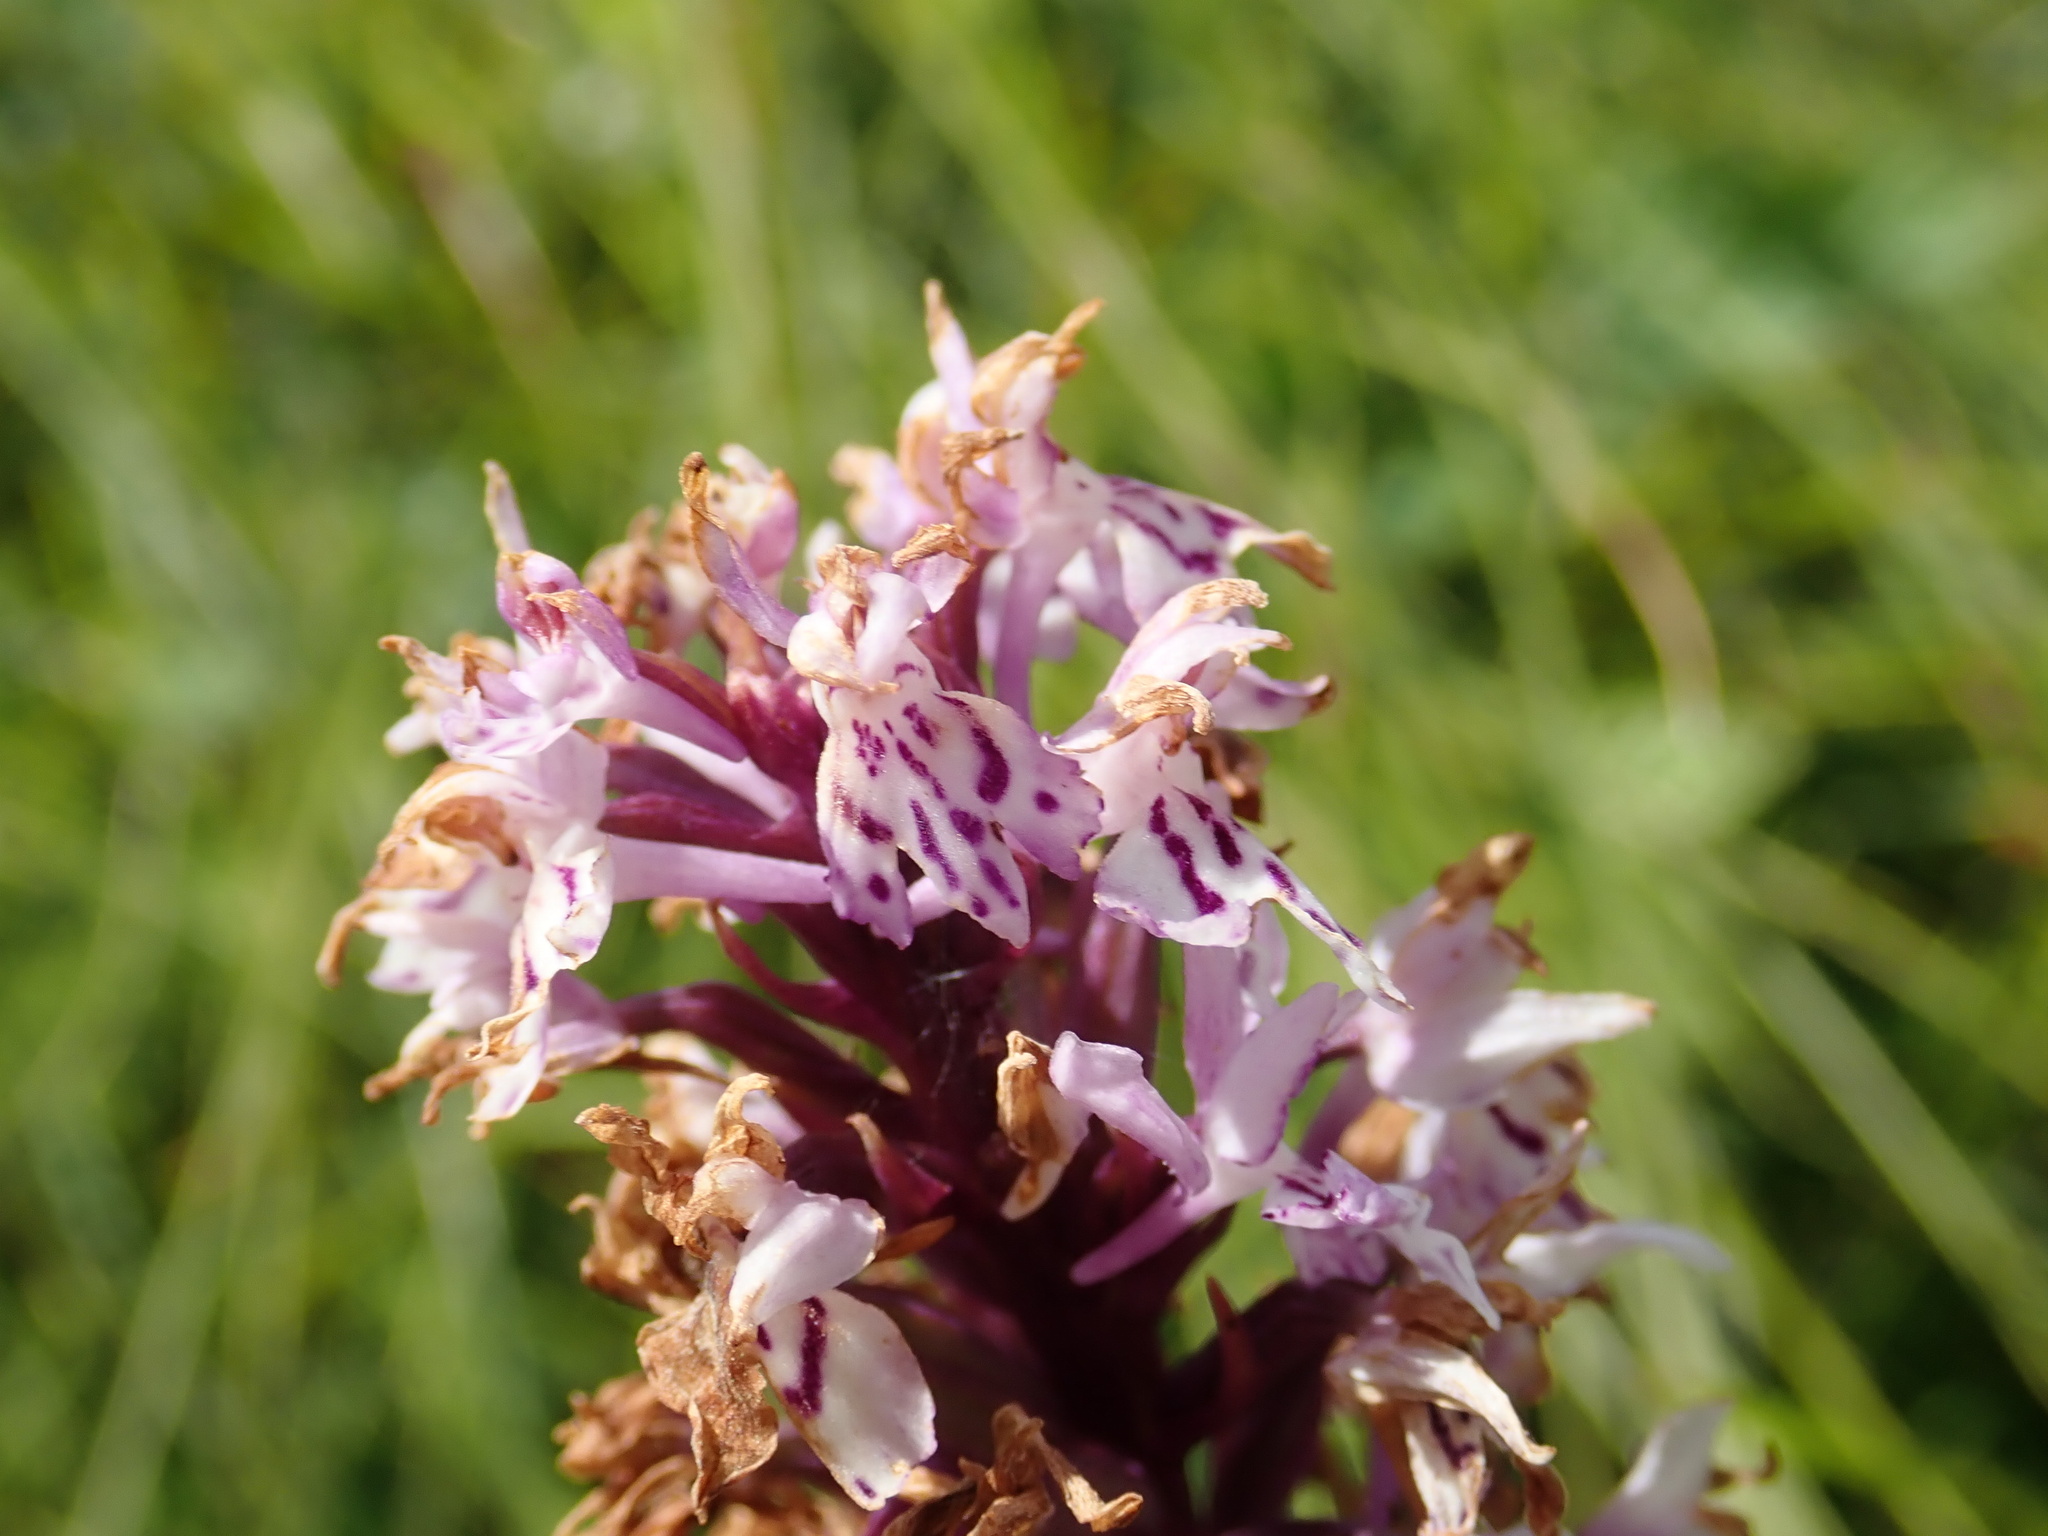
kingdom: Plantae
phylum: Tracheophyta
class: Liliopsida
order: Asparagales
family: Orchidaceae
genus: Dactylorhiza
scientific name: Dactylorhiza maculata
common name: Heath spotted-orchid
